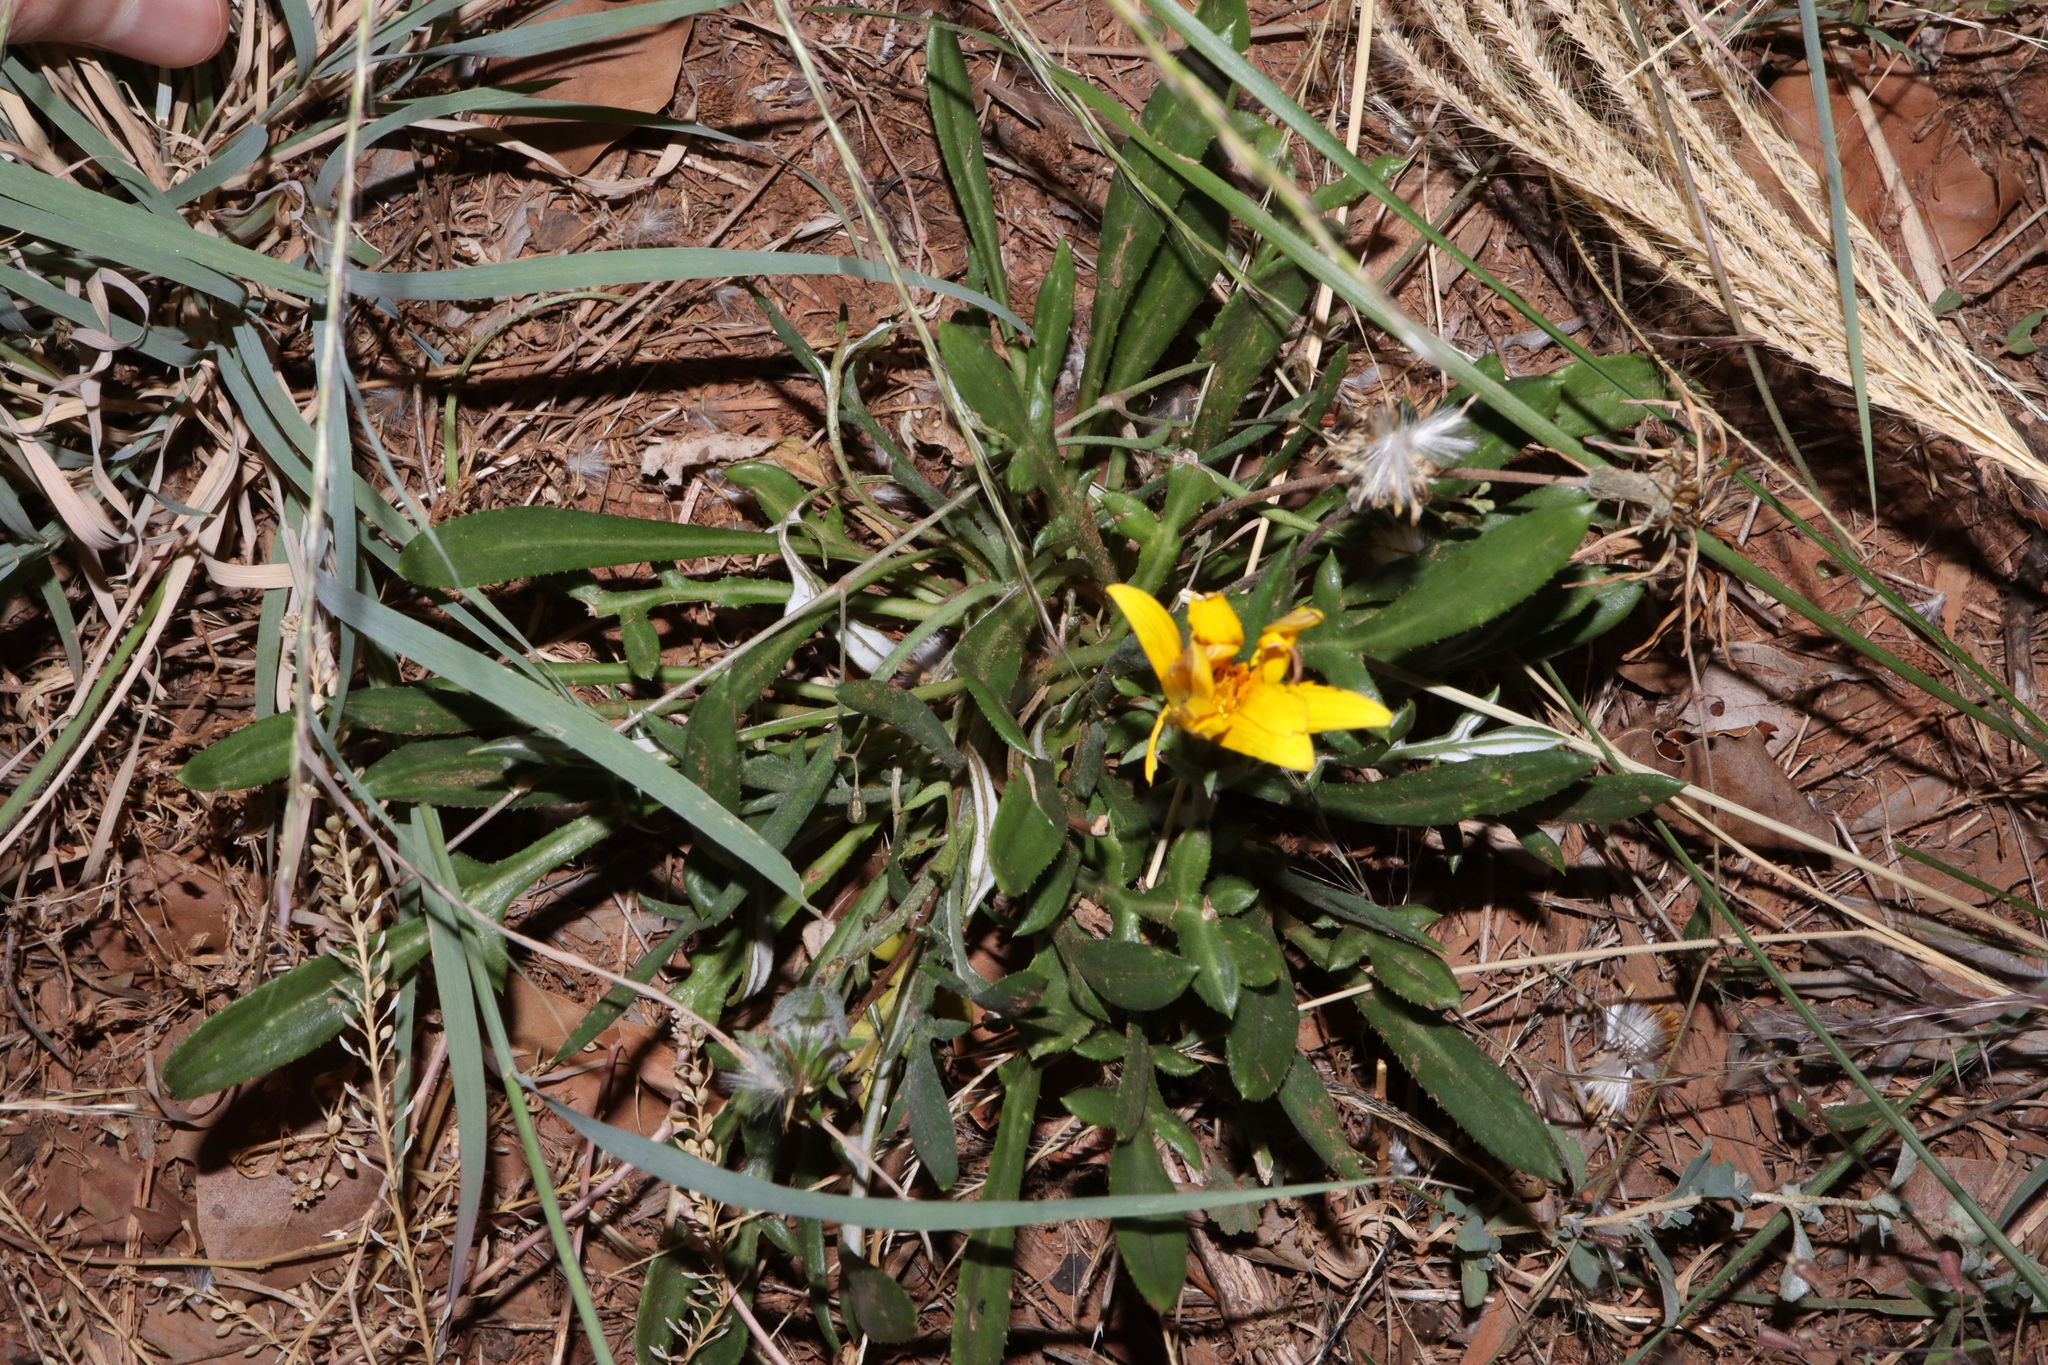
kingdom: Plantae
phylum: Tracheophyta
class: Magnoliopsida
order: Asterales
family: Asteraceae
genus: Gazania
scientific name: Gazania splendens
